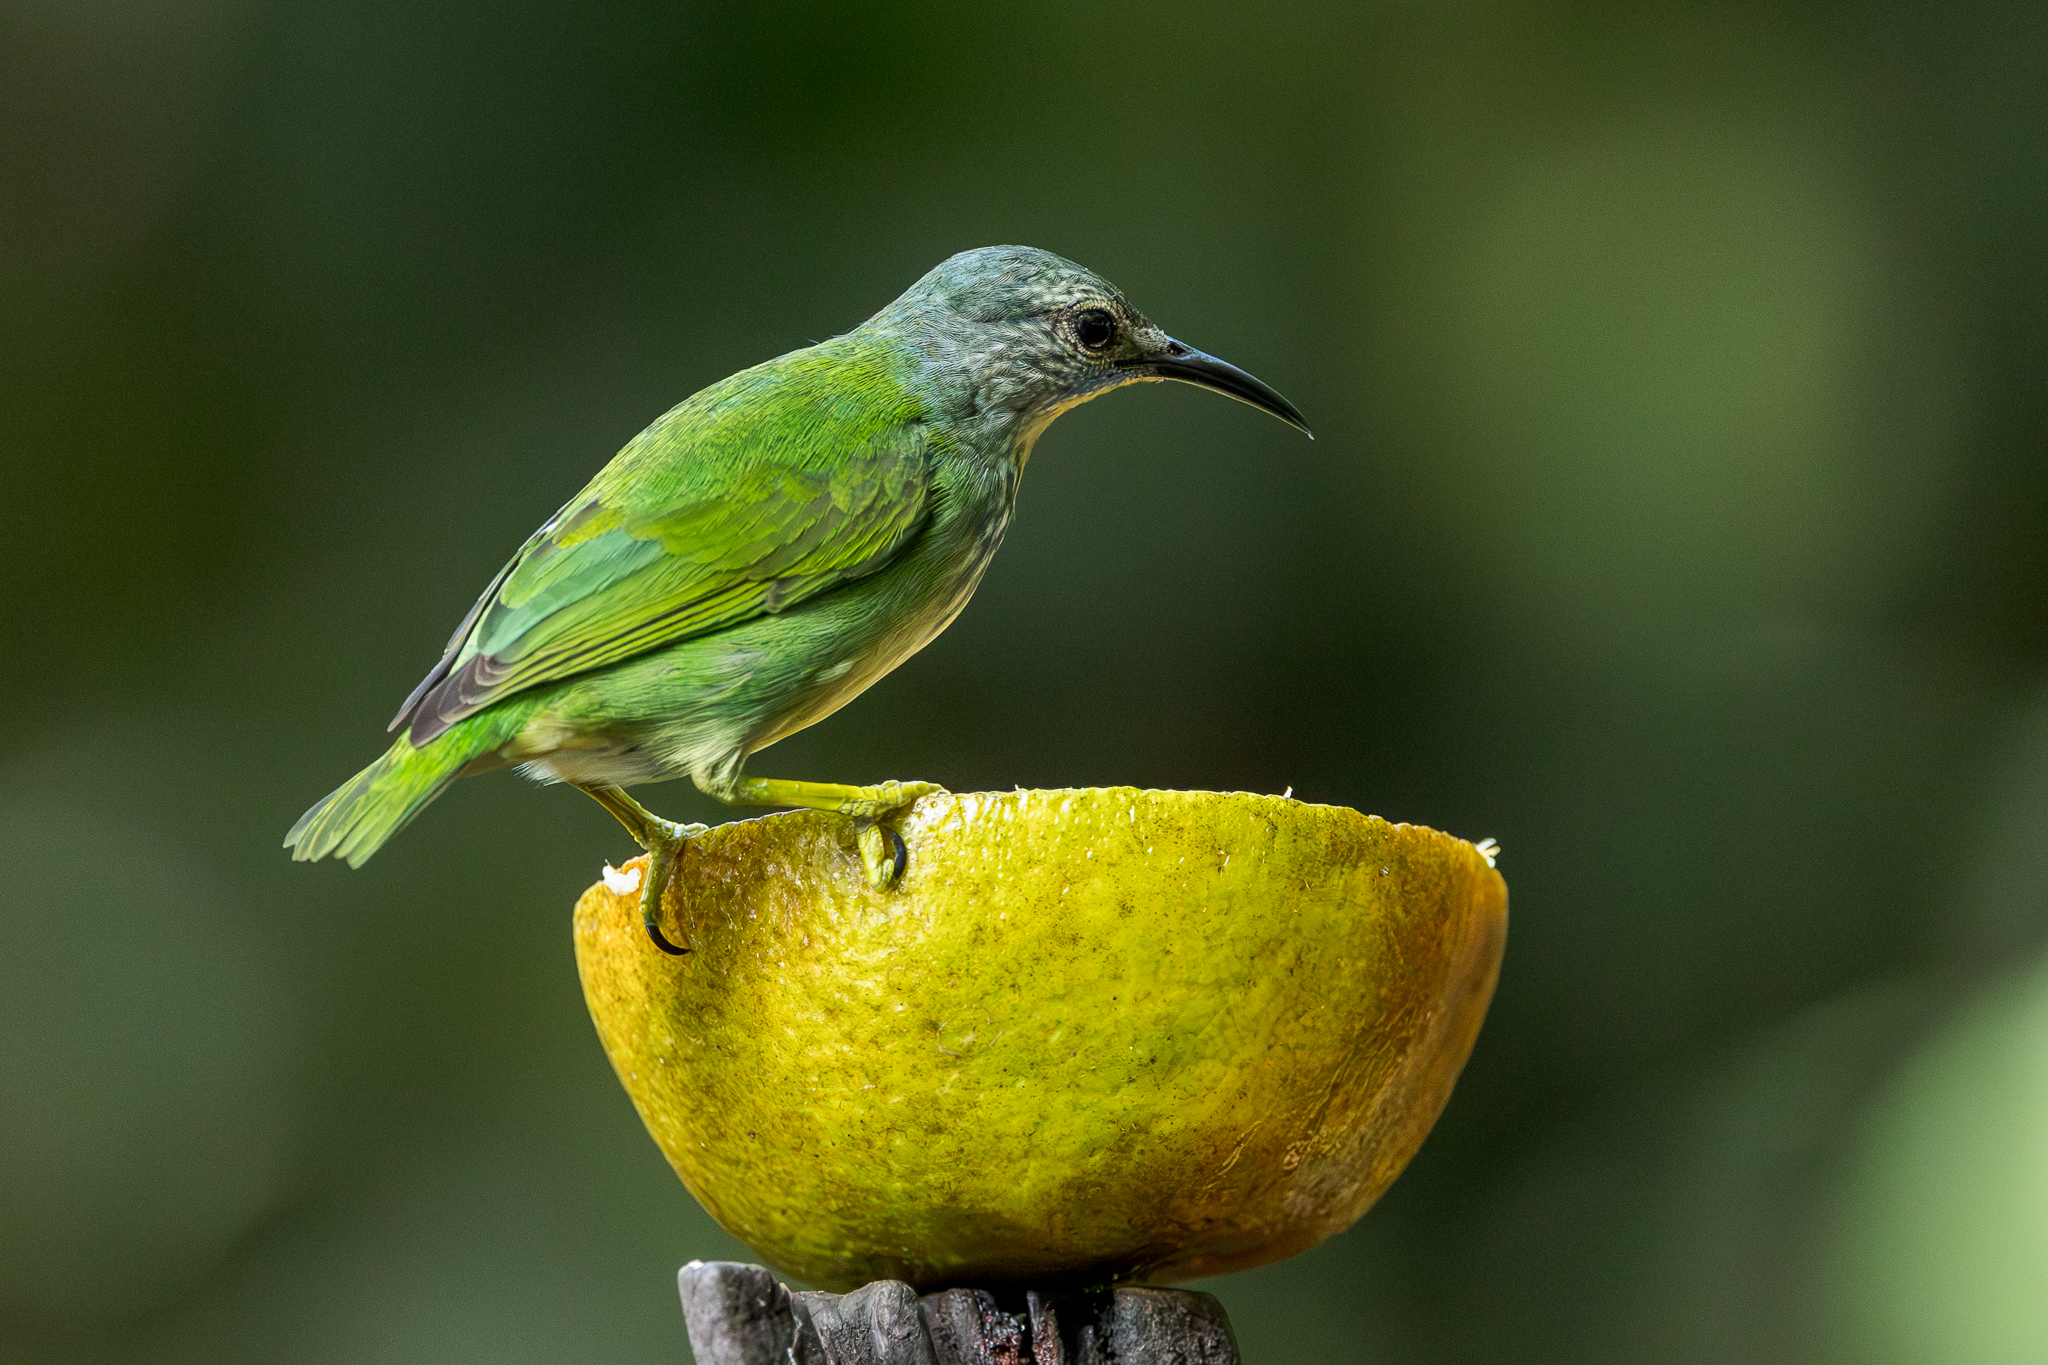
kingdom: Animalia
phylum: Chordata
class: Aves
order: Passeriformes
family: Thraupidae
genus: Cyanerpes
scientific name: Cyanerpes lucidus
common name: Shining honeycreeper
